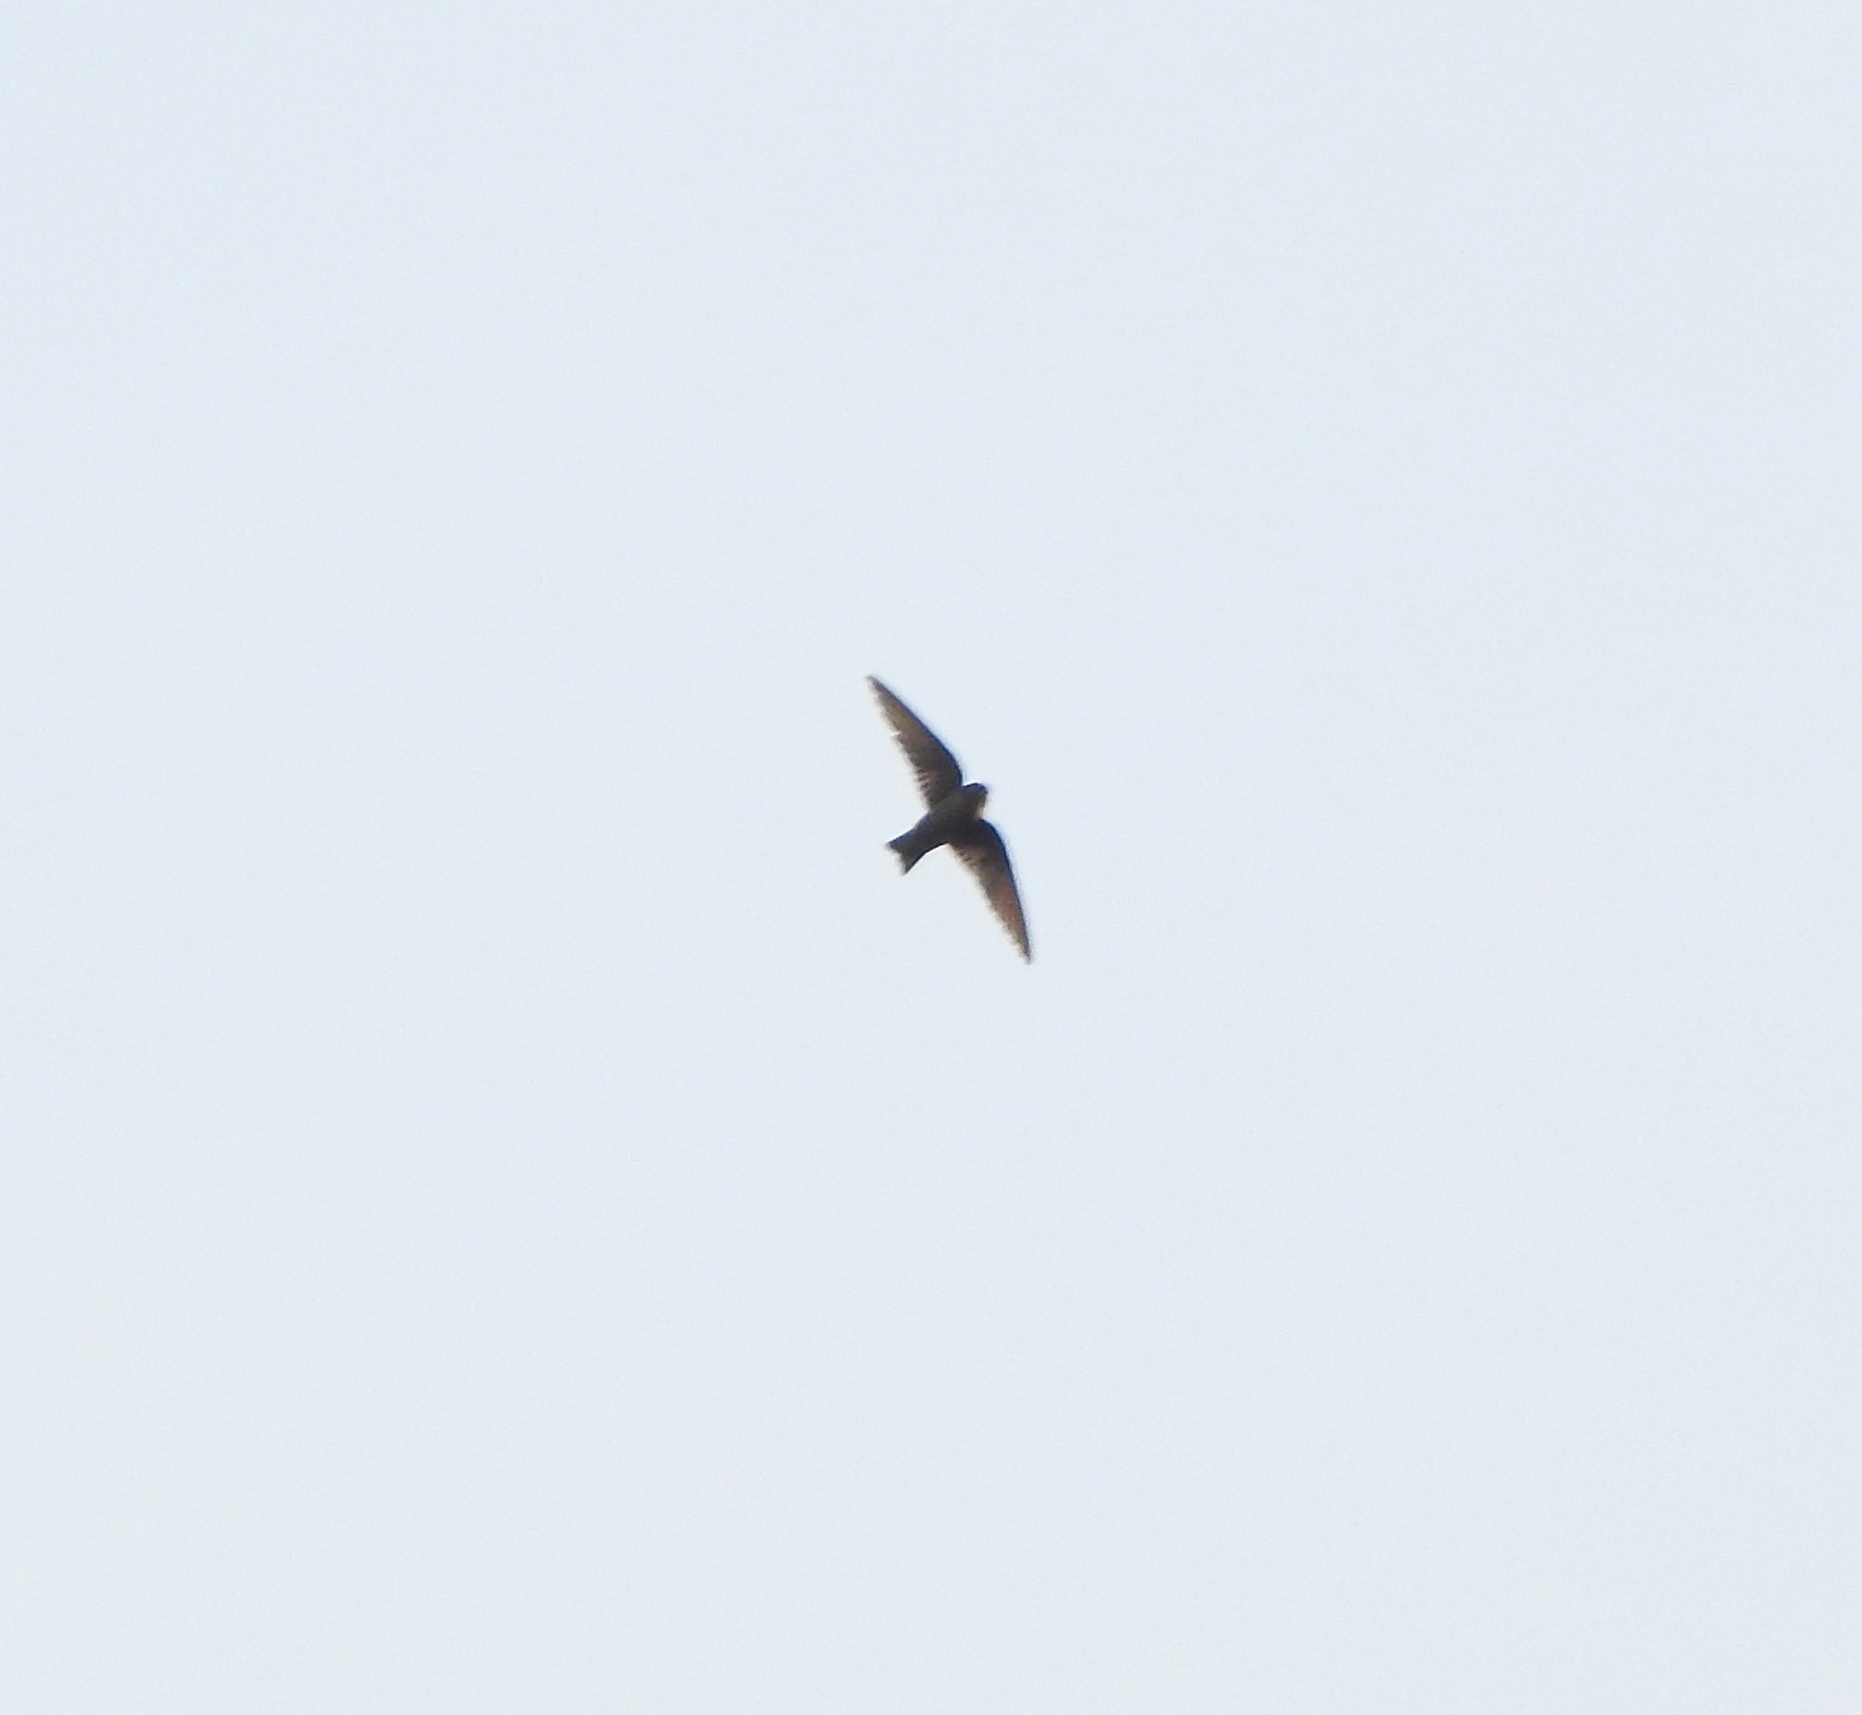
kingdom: Animalia
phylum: Chordata
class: Aves
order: Passeriformes
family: Hirundinidae
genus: Ptyonoprogne
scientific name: Ptyonoprogne concolor
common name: Dusky crag-martin
